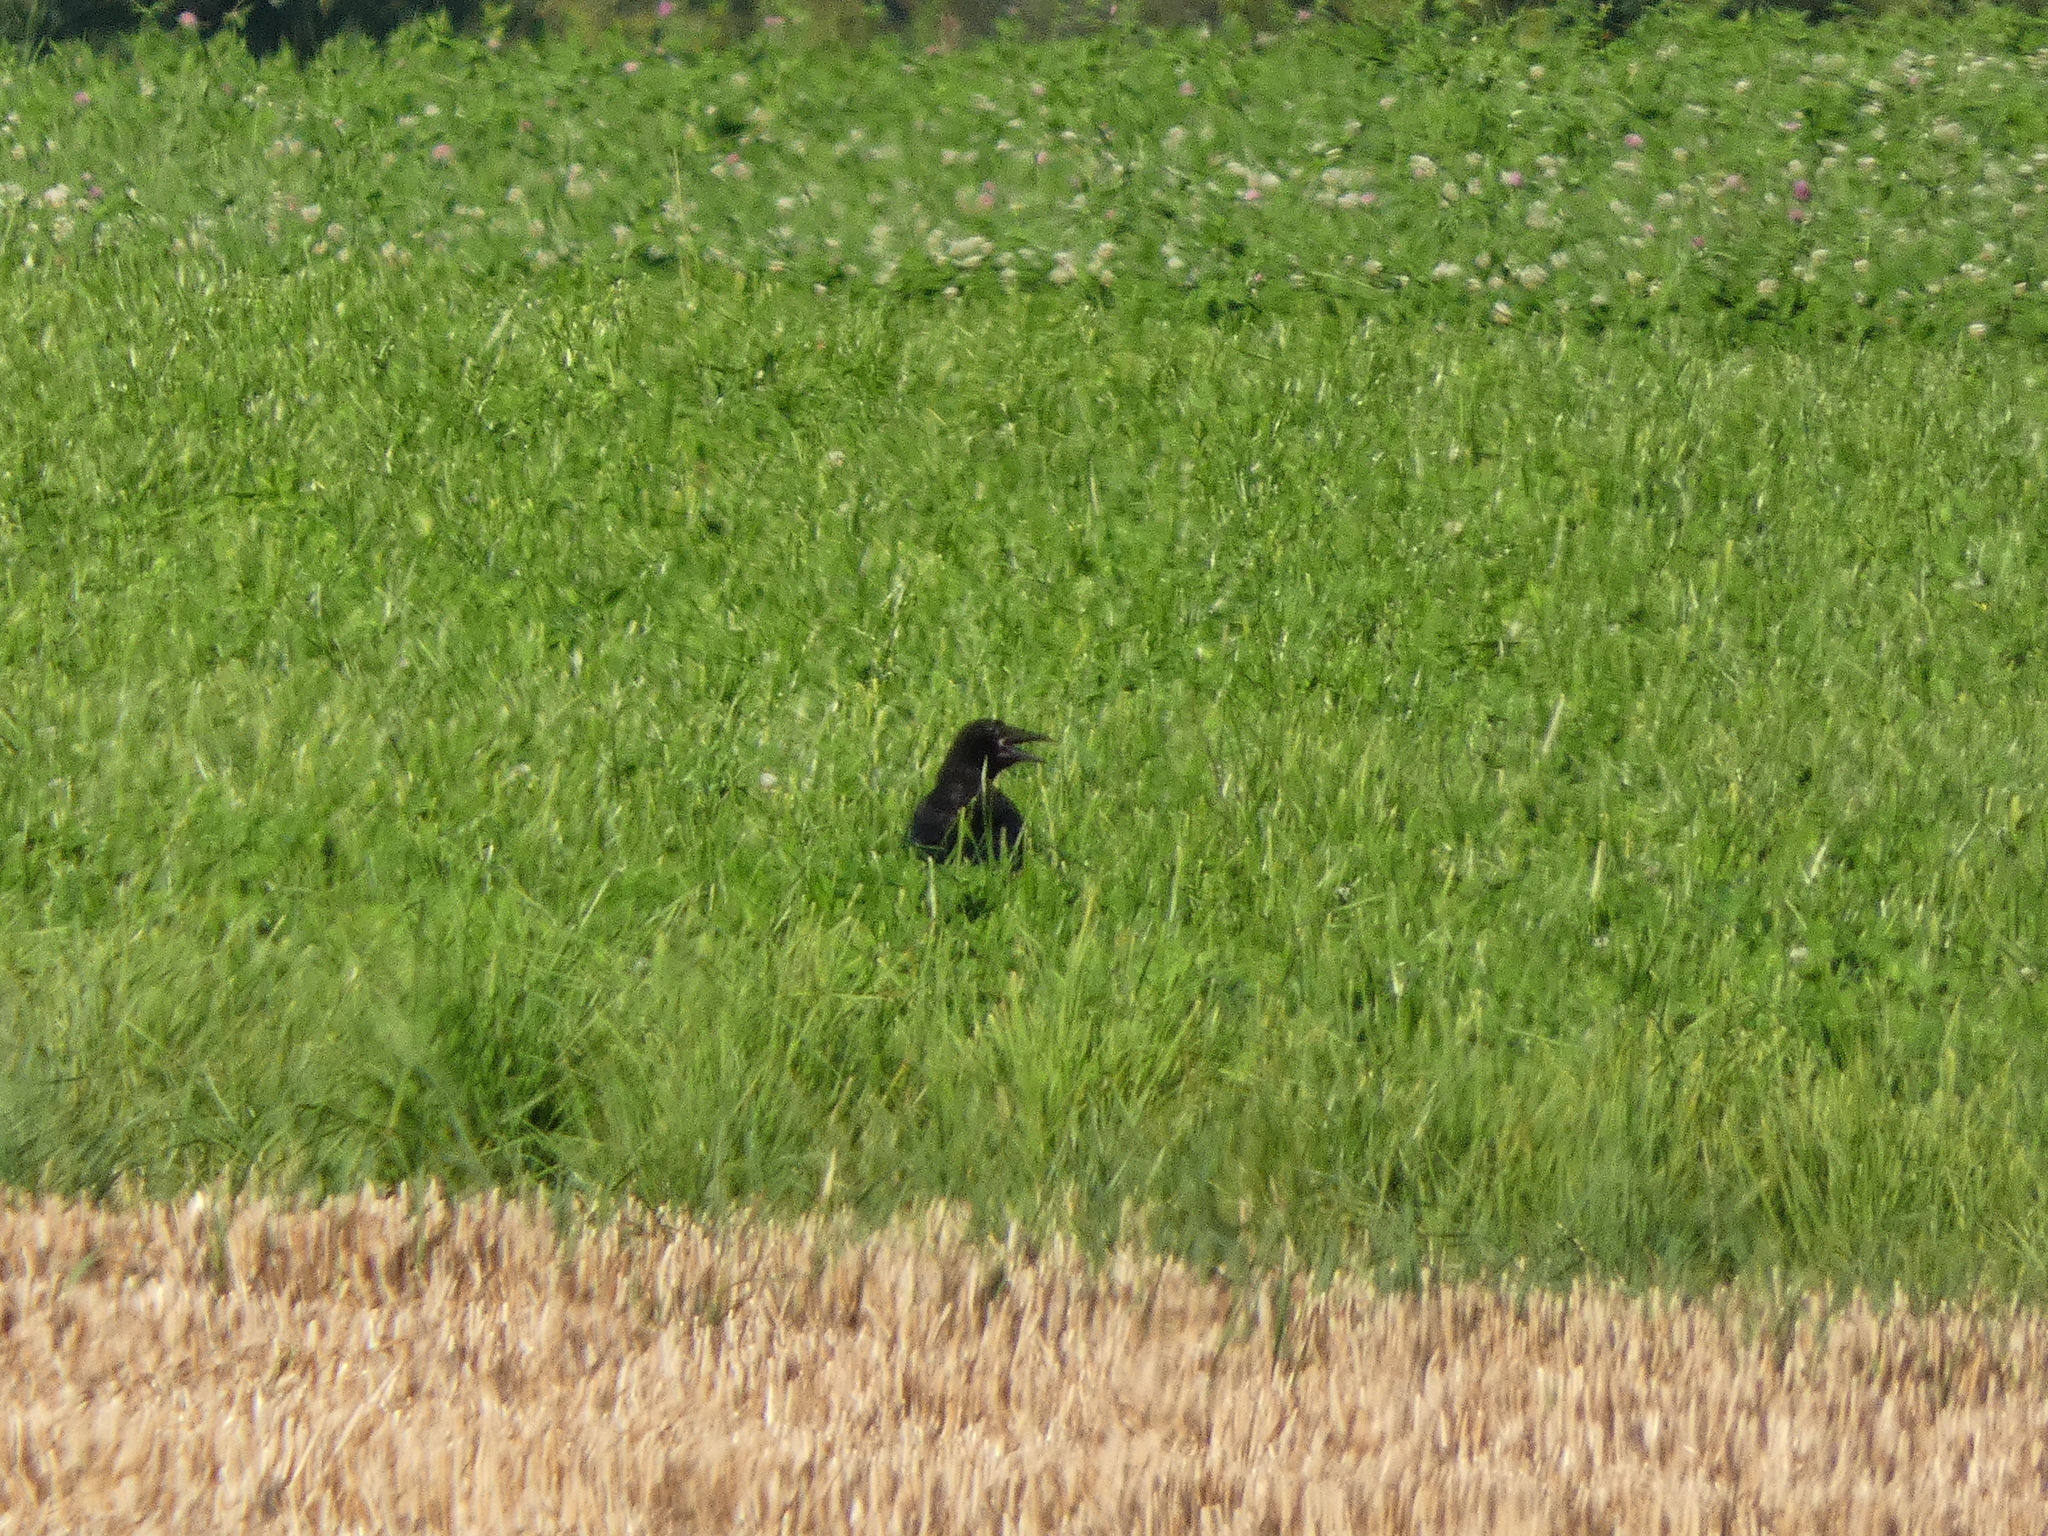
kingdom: Animalia
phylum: Chordata
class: Aves
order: Passeriformes
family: Corvidae
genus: Corvus
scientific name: Corvus corone
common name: Carrion crow
